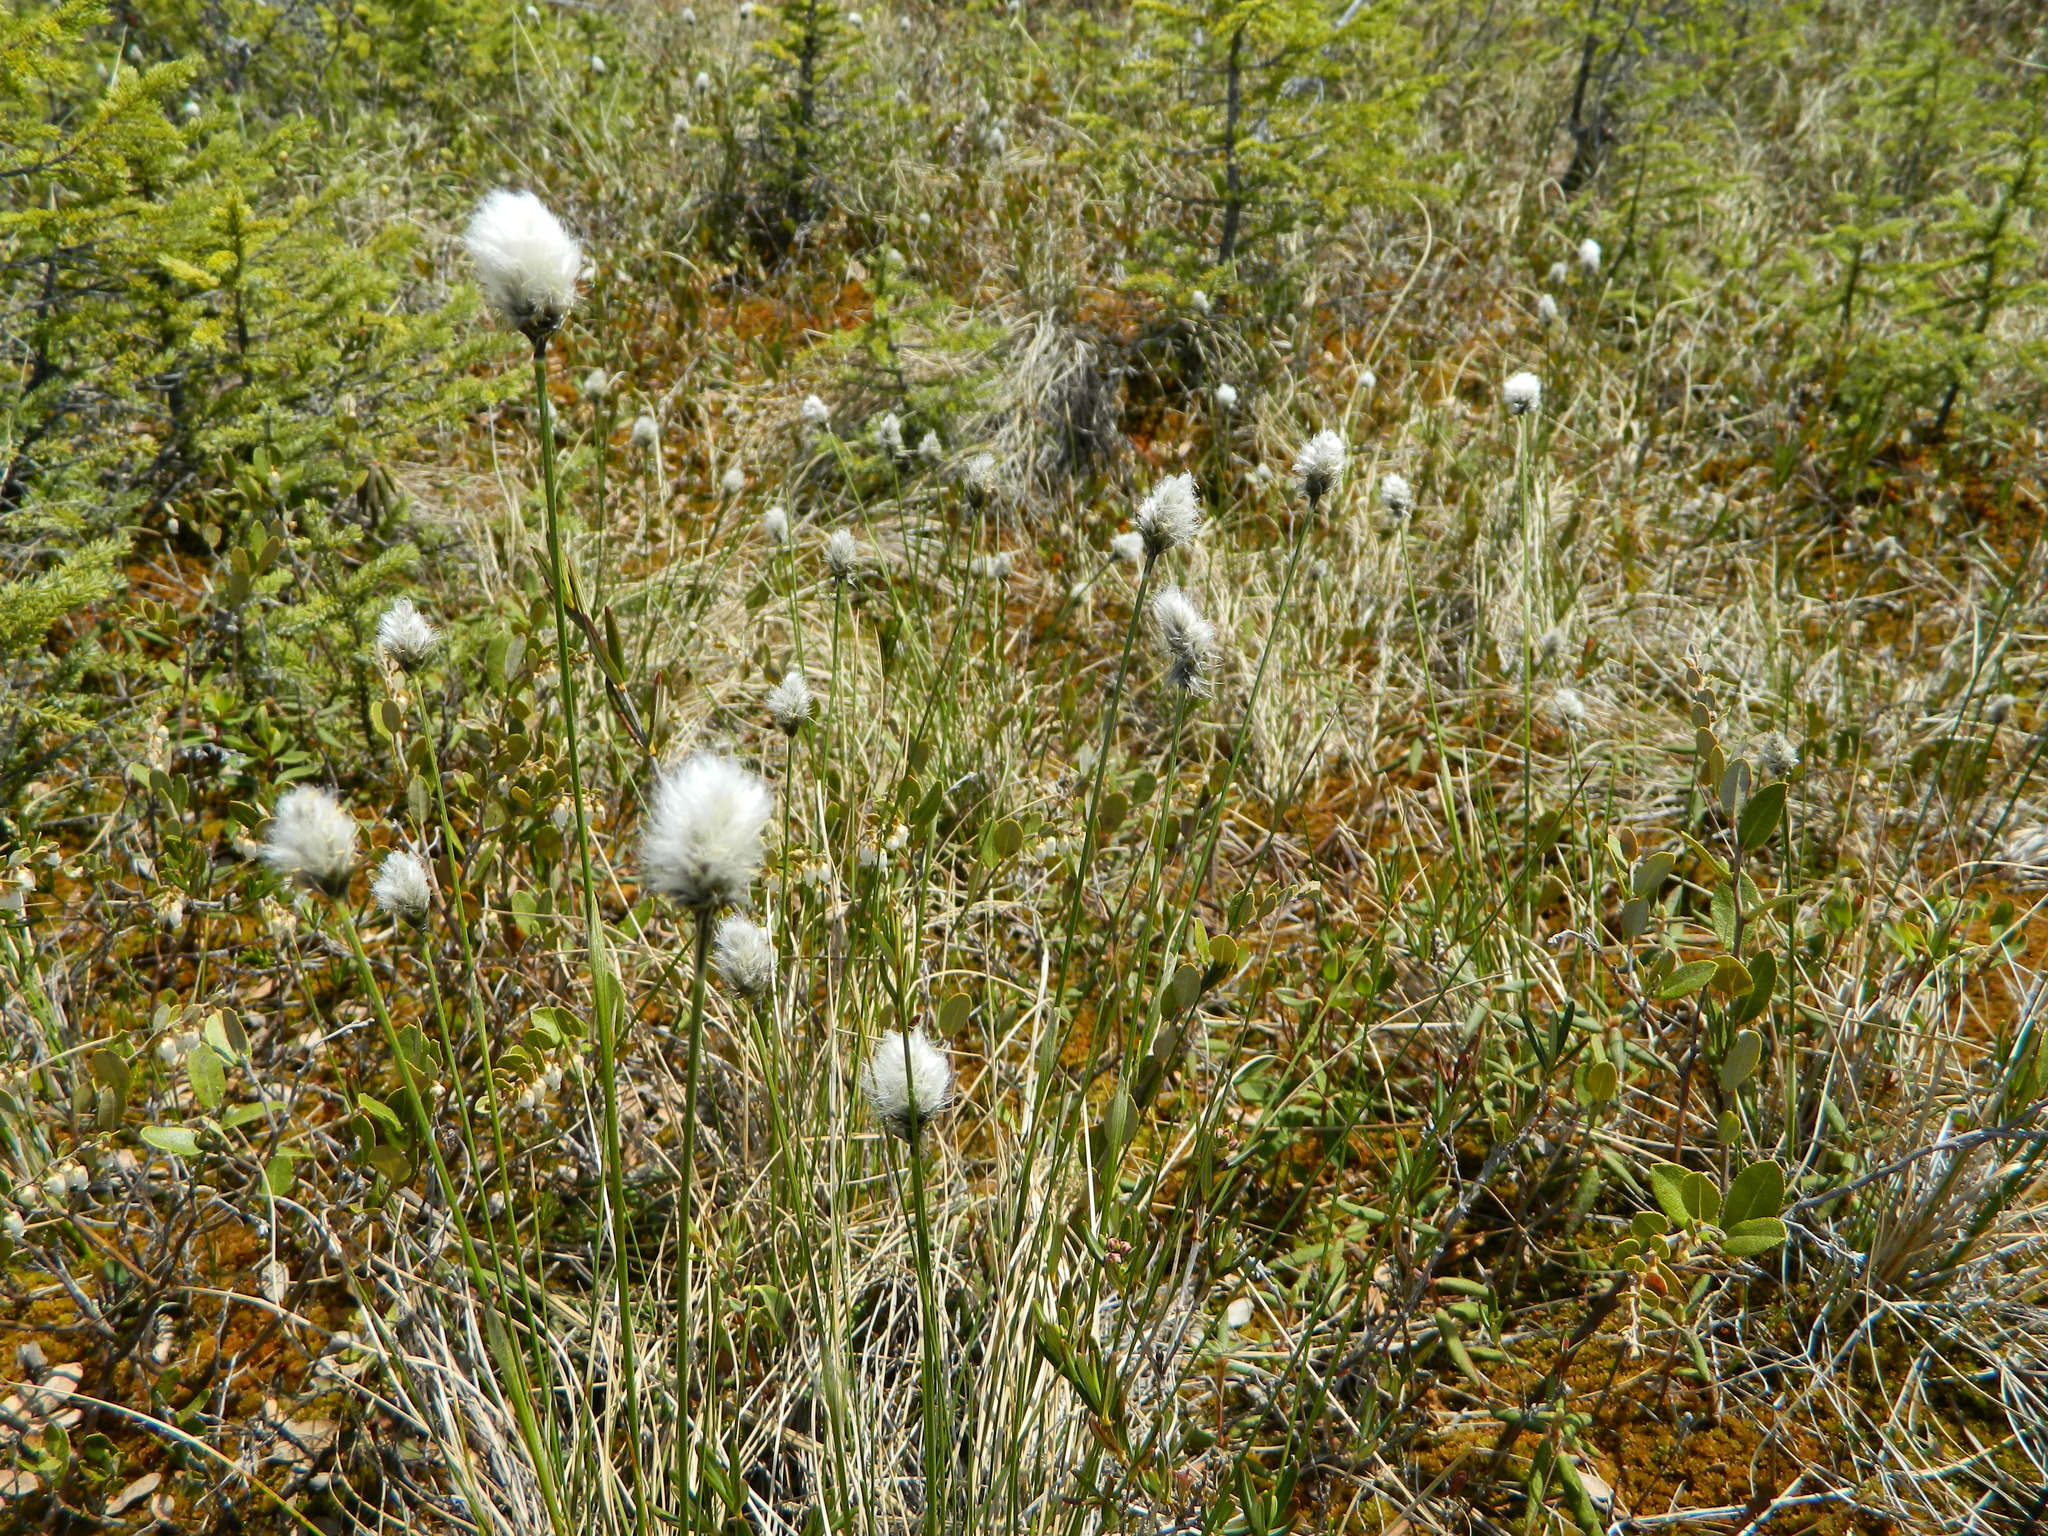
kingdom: Plantae
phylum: Tracheophyta
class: Liliopsida
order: Poales
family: Cyperaceae
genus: Eriophorum
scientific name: Eriophorum vaginatum
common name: Hare's-tail cottongrass
